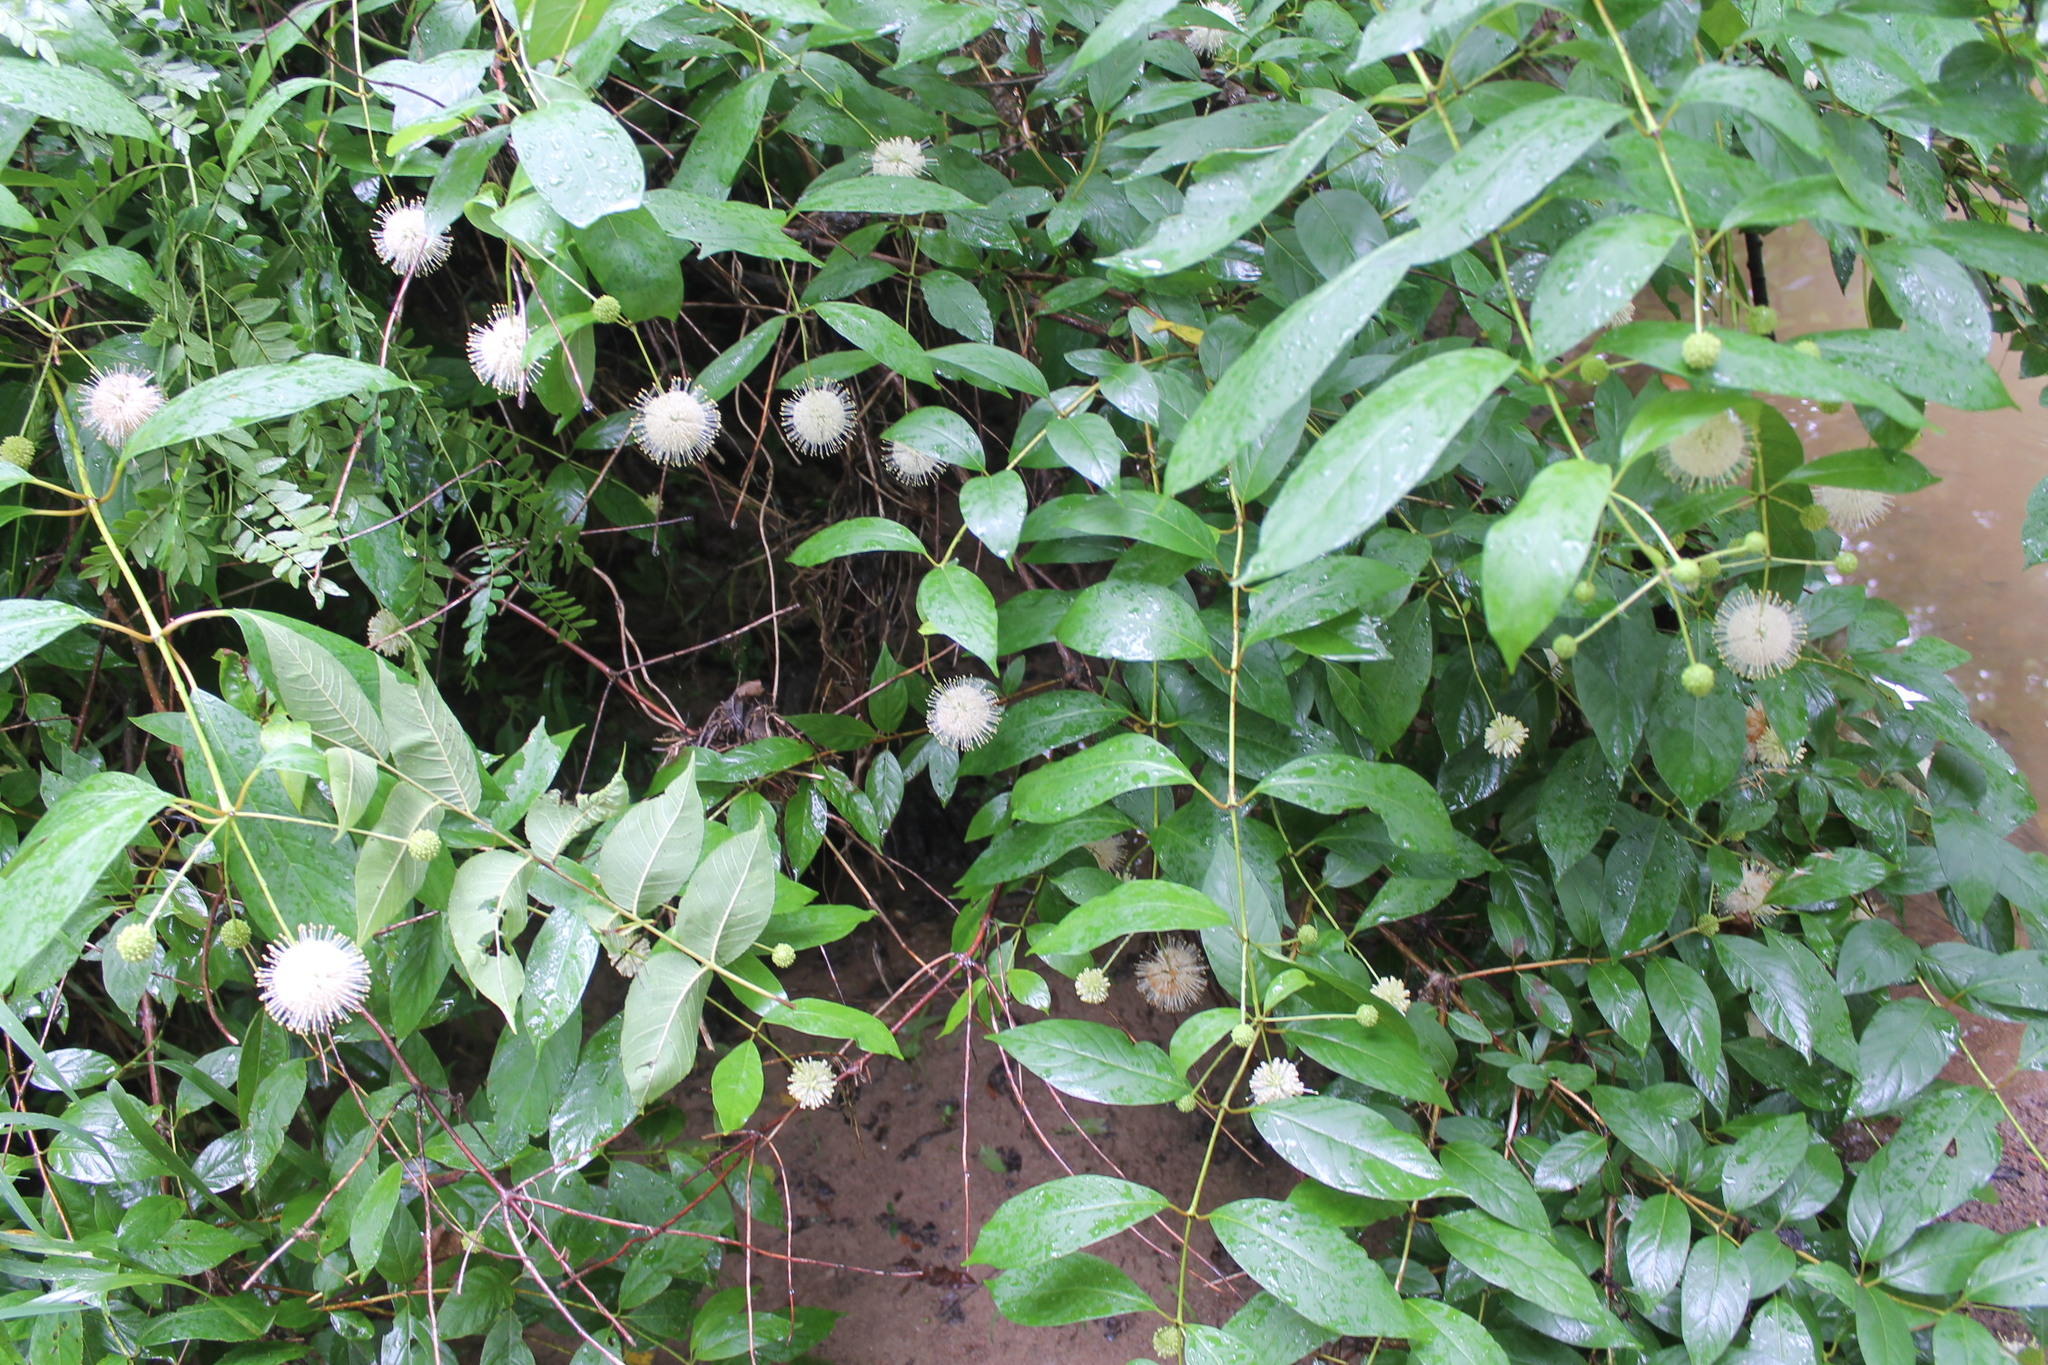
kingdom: Plantae
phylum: Tracheophyta
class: Magnoliopsida
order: Gentianales
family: Rubiaceae
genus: Cephalanthus
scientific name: Cephalanthus occidentalis
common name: Button-willow
